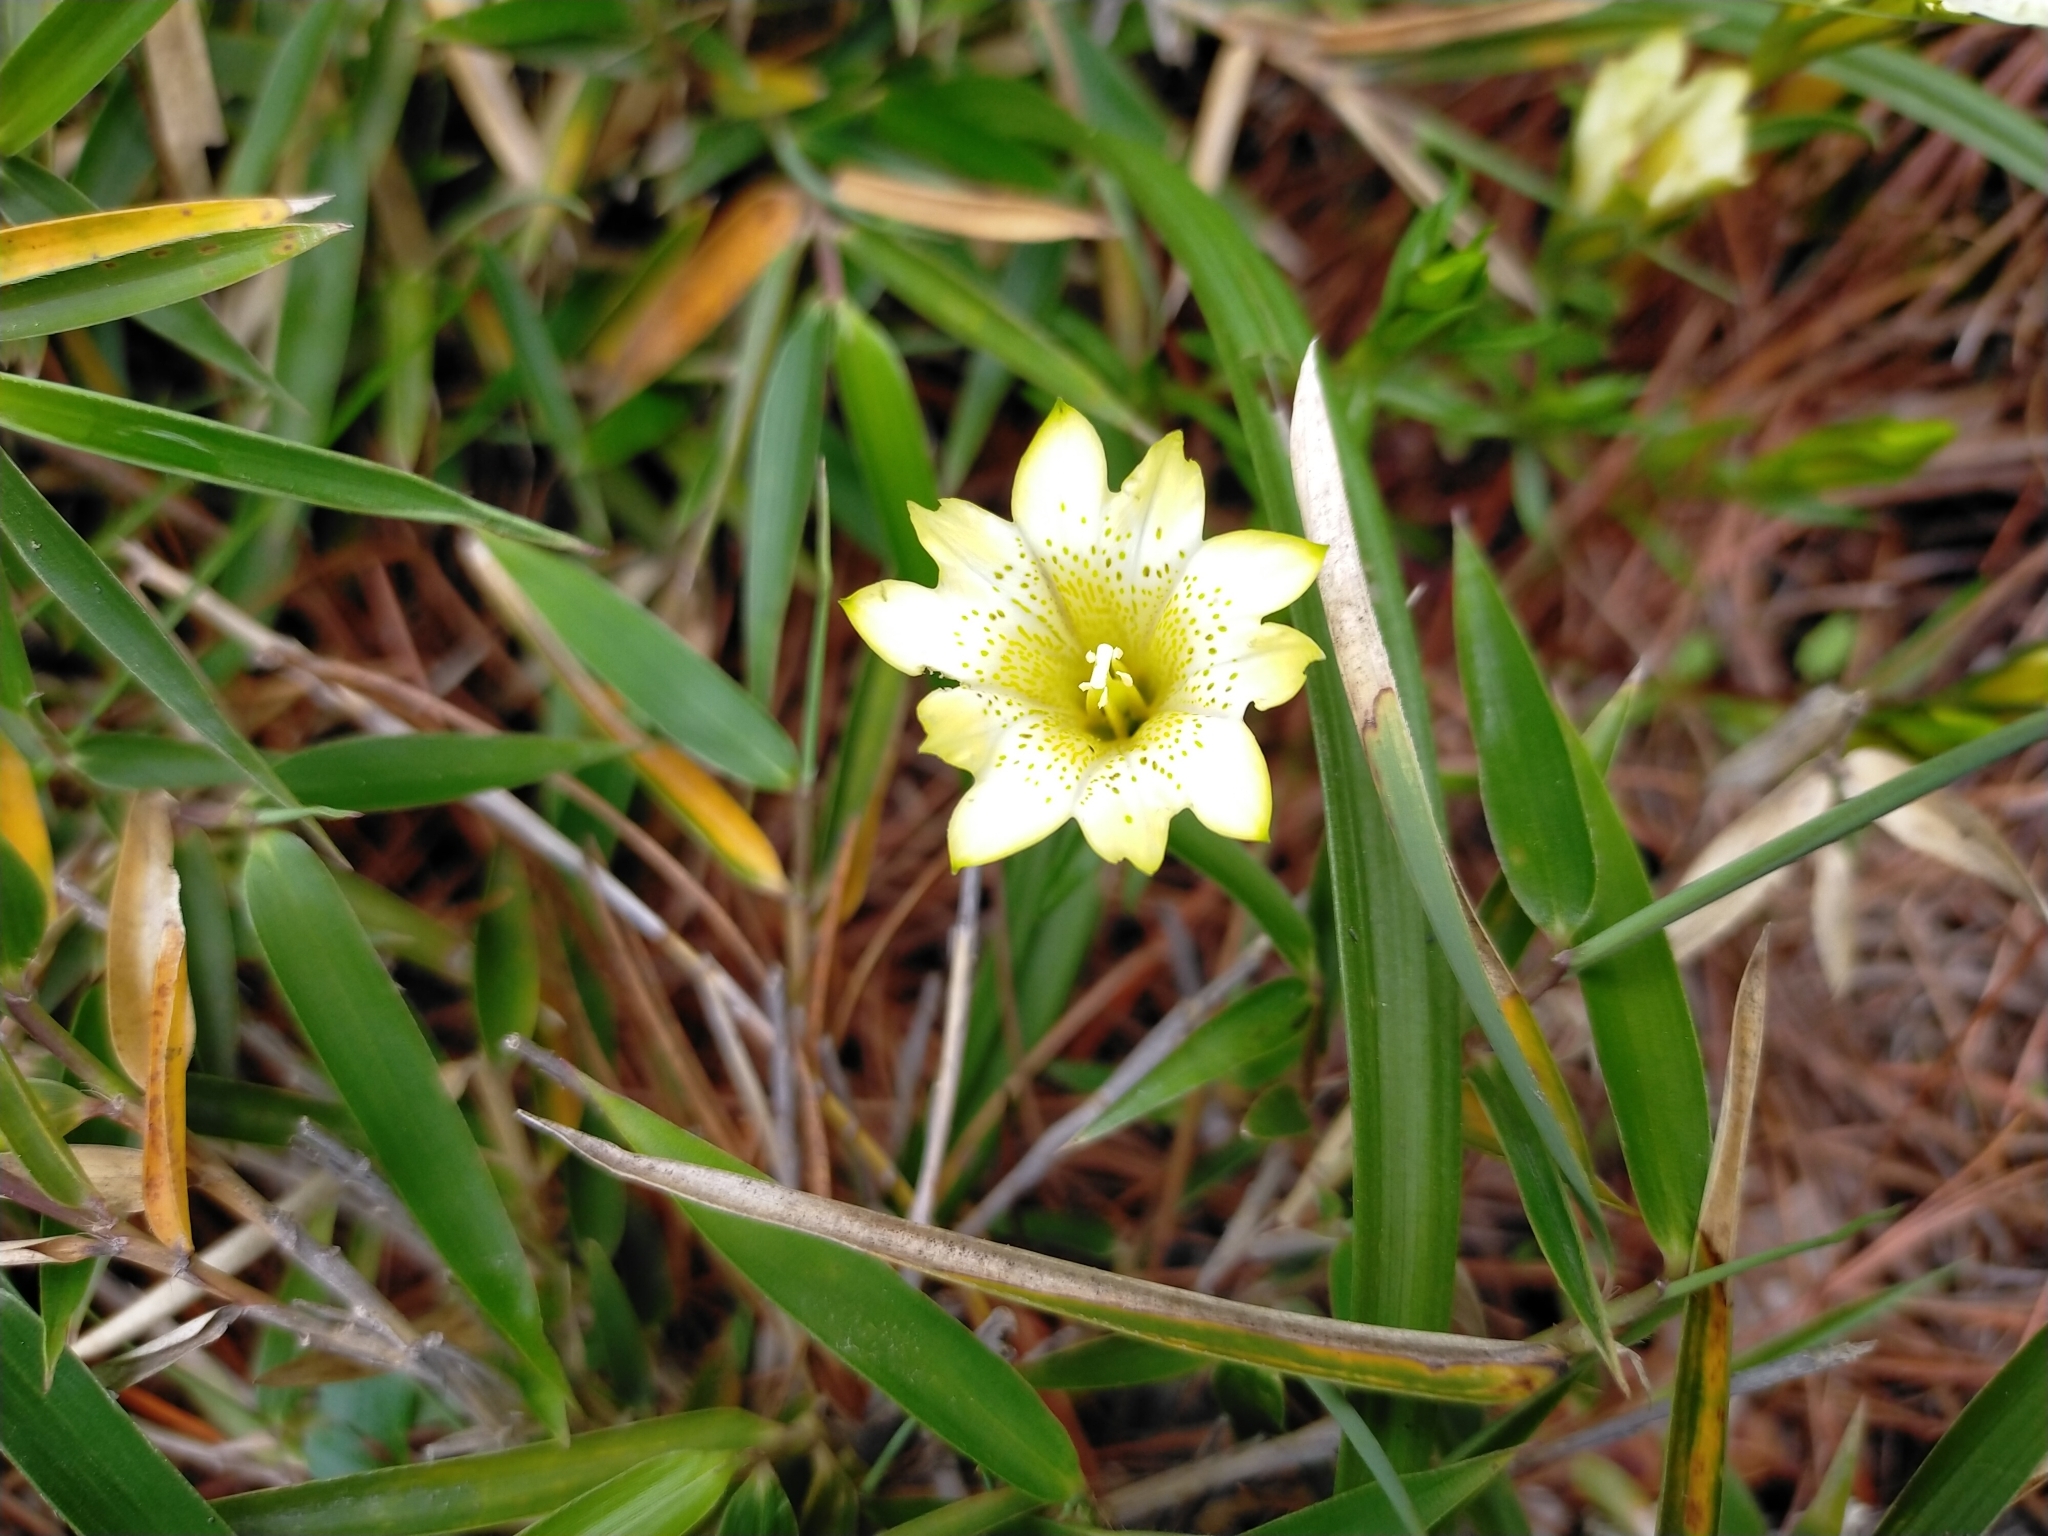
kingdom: Plantae
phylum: Tracheophyta
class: Magnoliopsida
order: Gentianales
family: Gentianaceae
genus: Gentiana
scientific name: Gentiana scabrida
